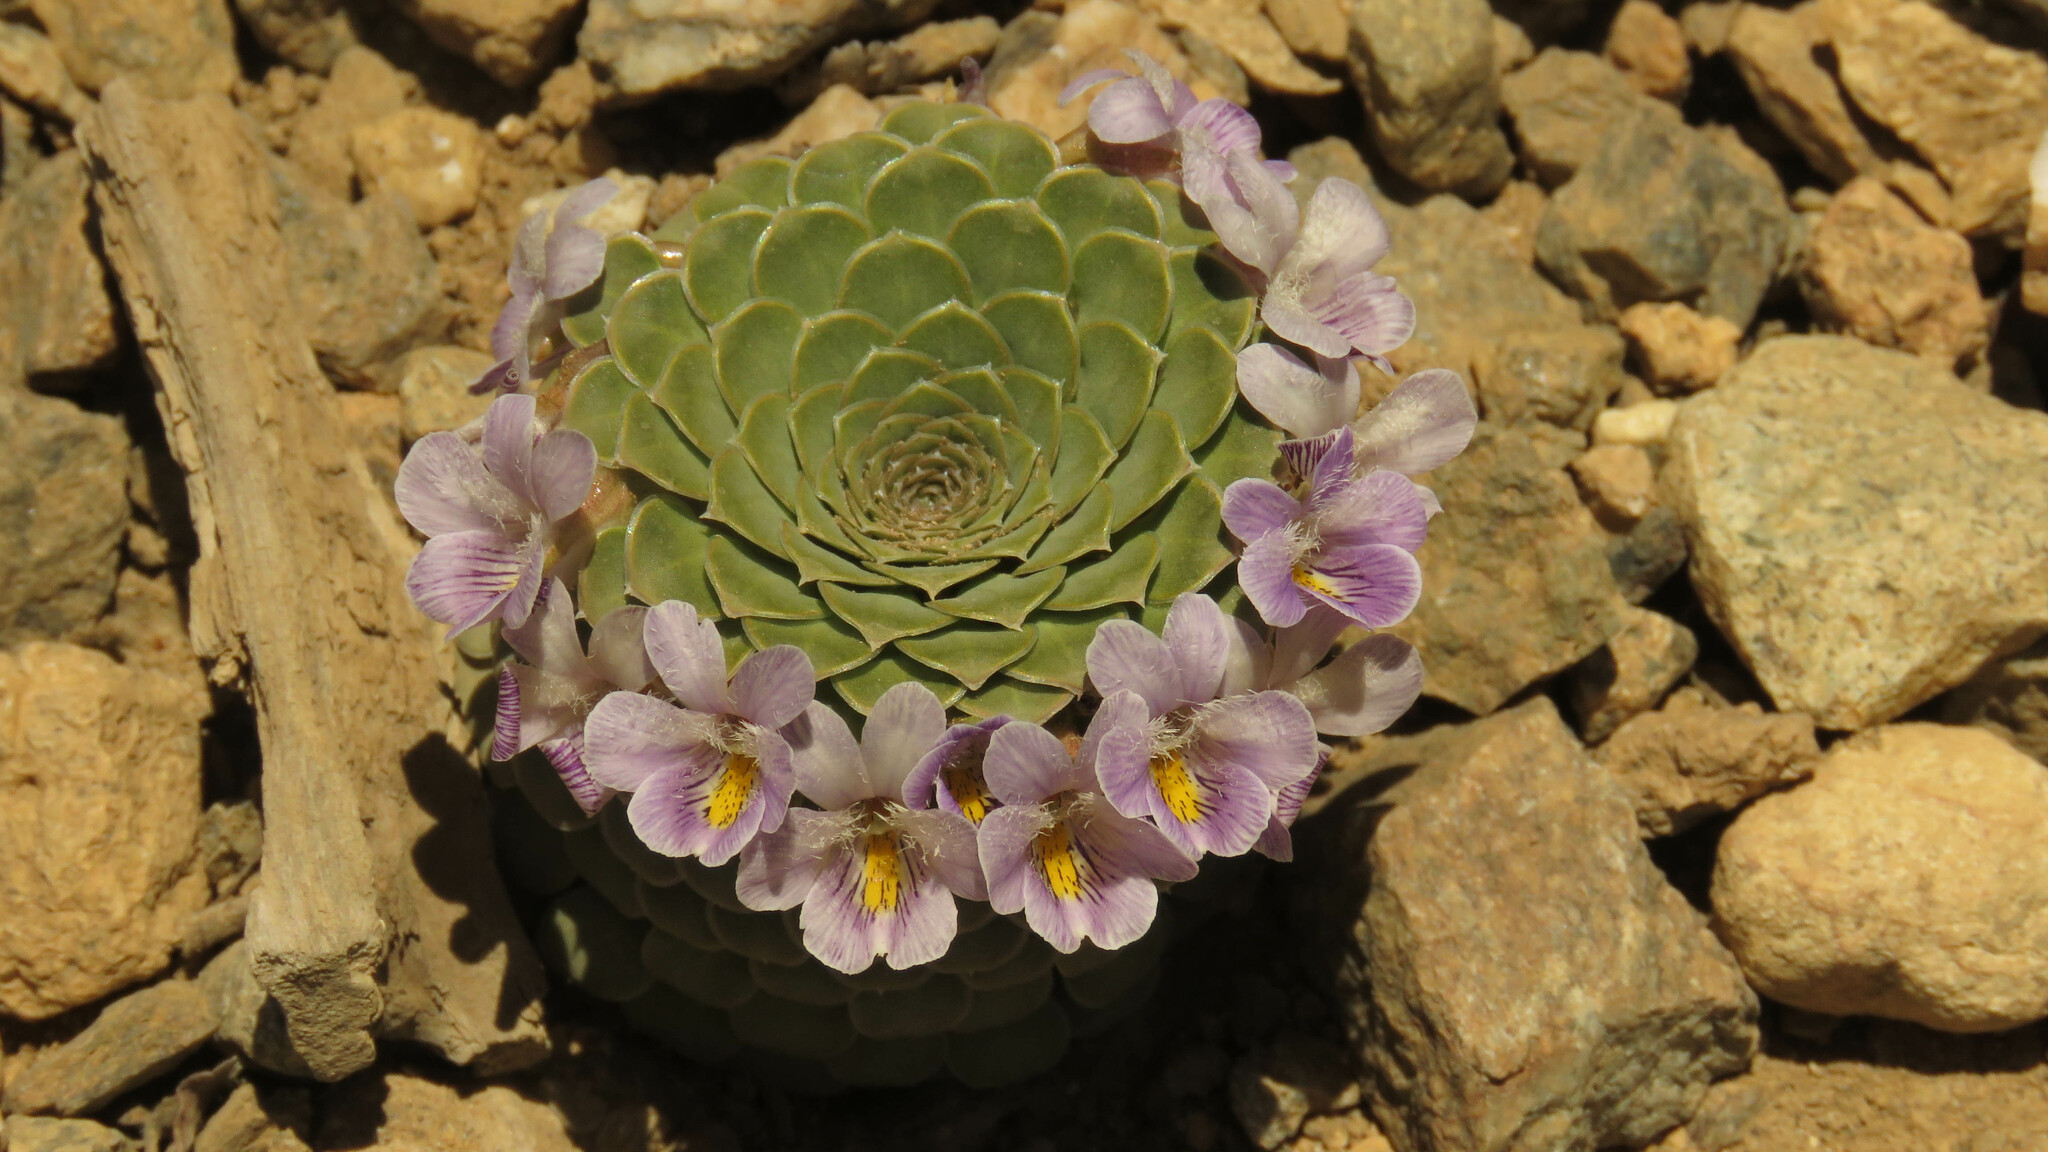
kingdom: Plantae
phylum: Tracheophyta
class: Magnoliopsida
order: Malpighiales
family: Violaceae
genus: Viola
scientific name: Viola petraea
